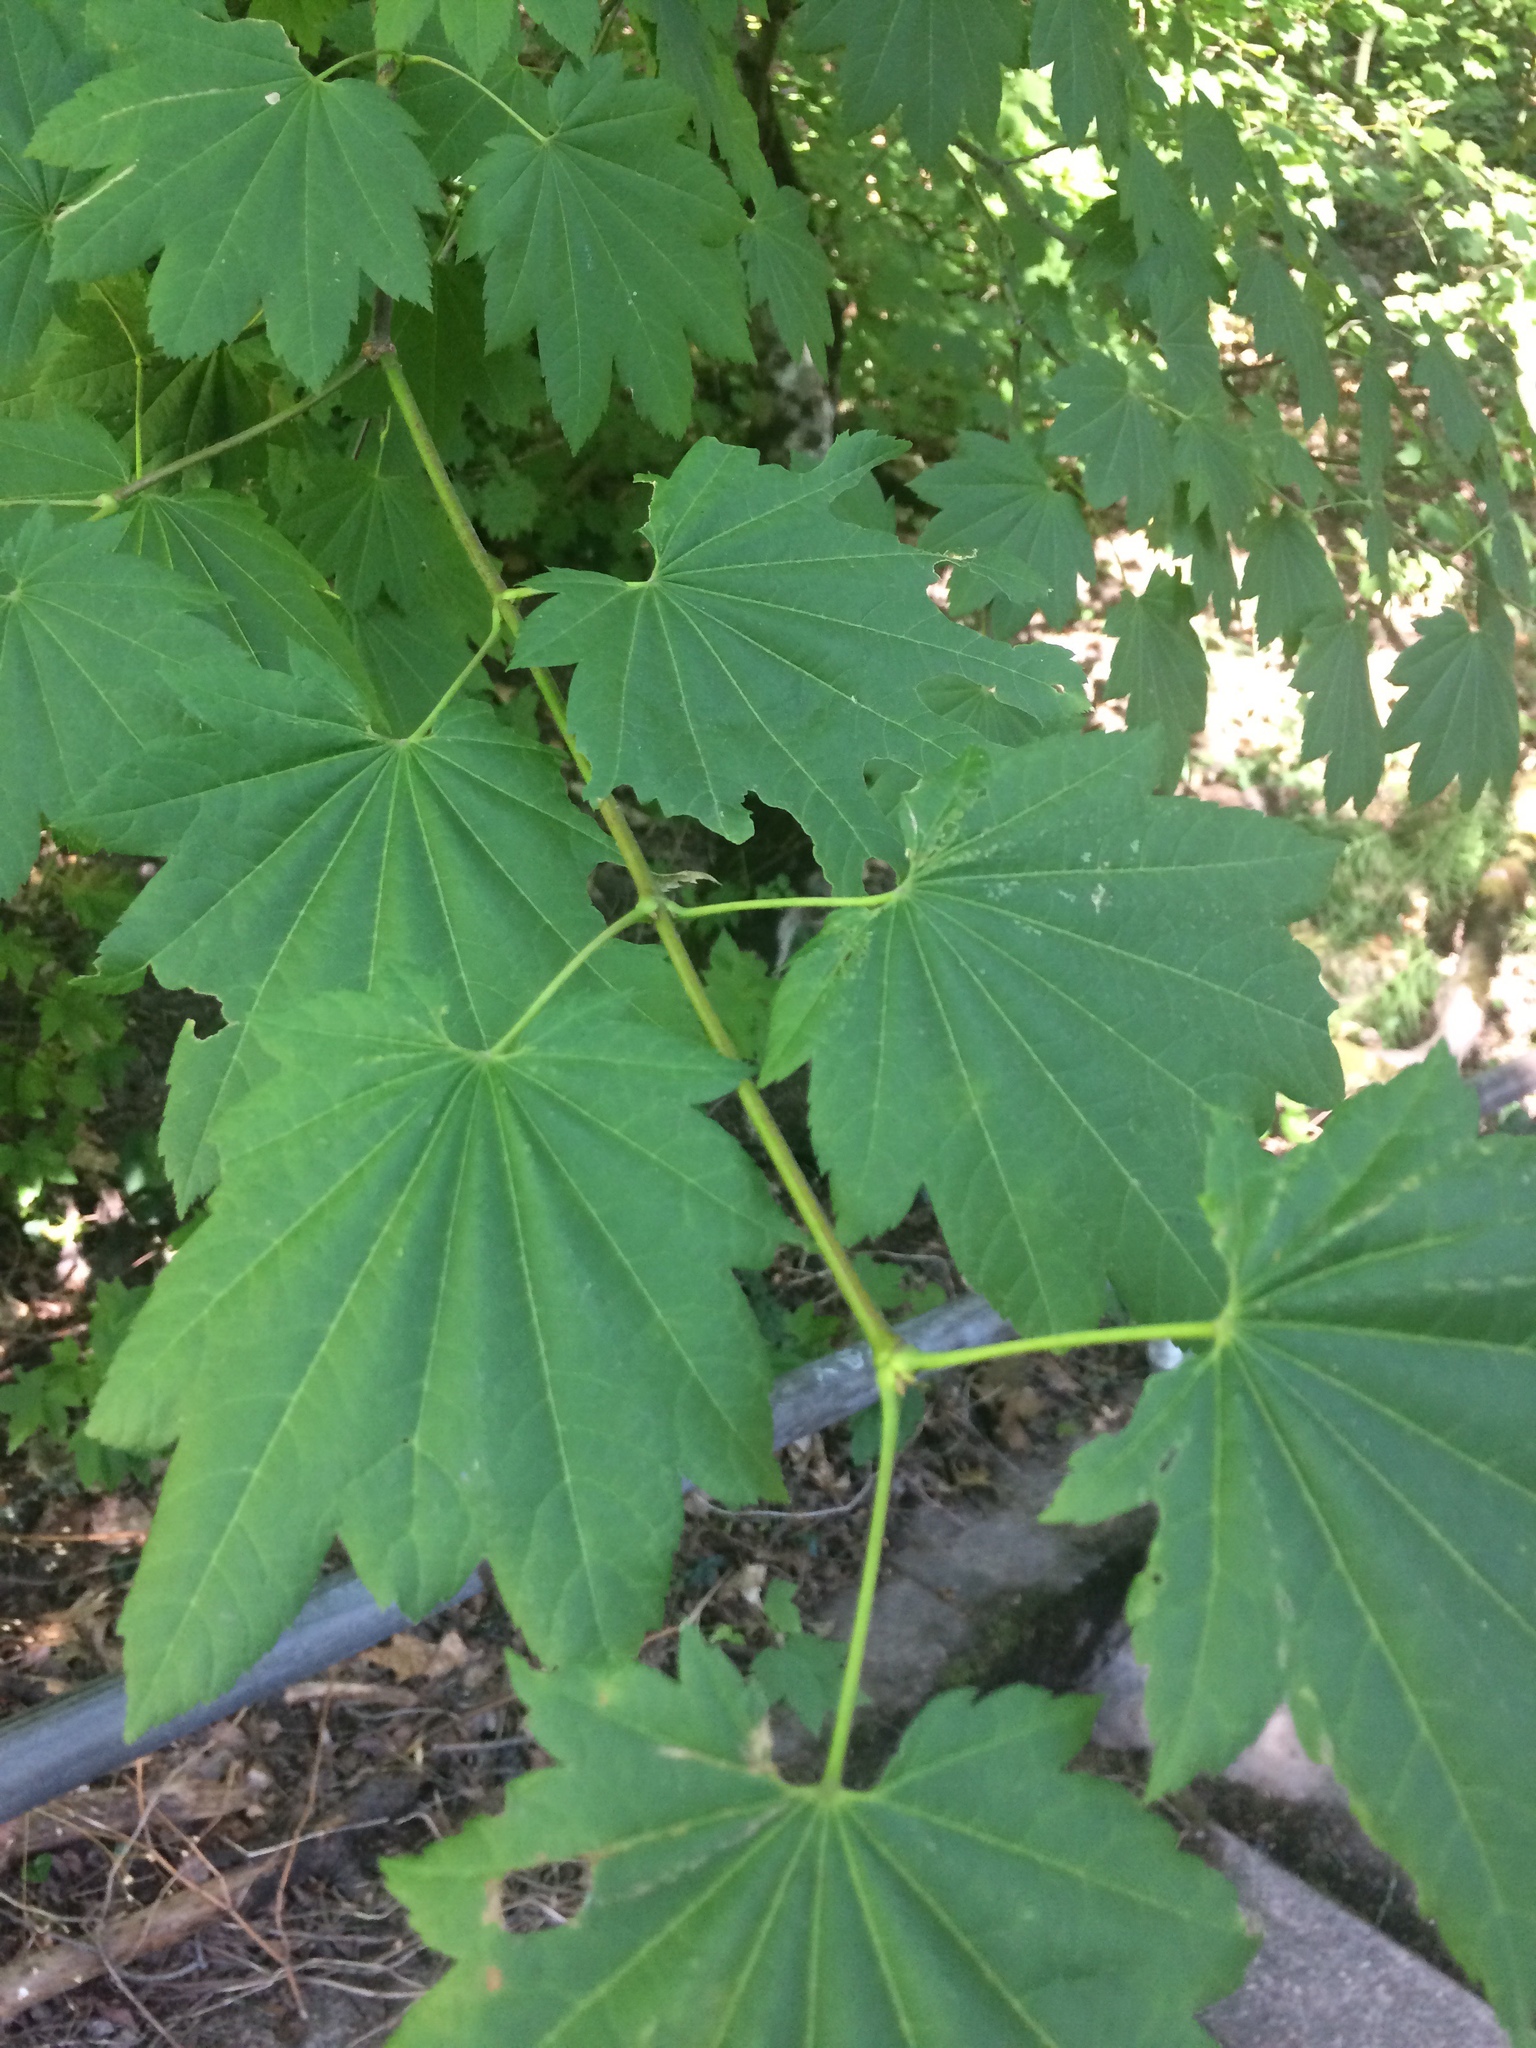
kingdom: Plantae
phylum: Tracheophyta
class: Magnoliopsida
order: Sapindales
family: Sapindaceae
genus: Acer
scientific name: Acer circinatum
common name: Vine maple
